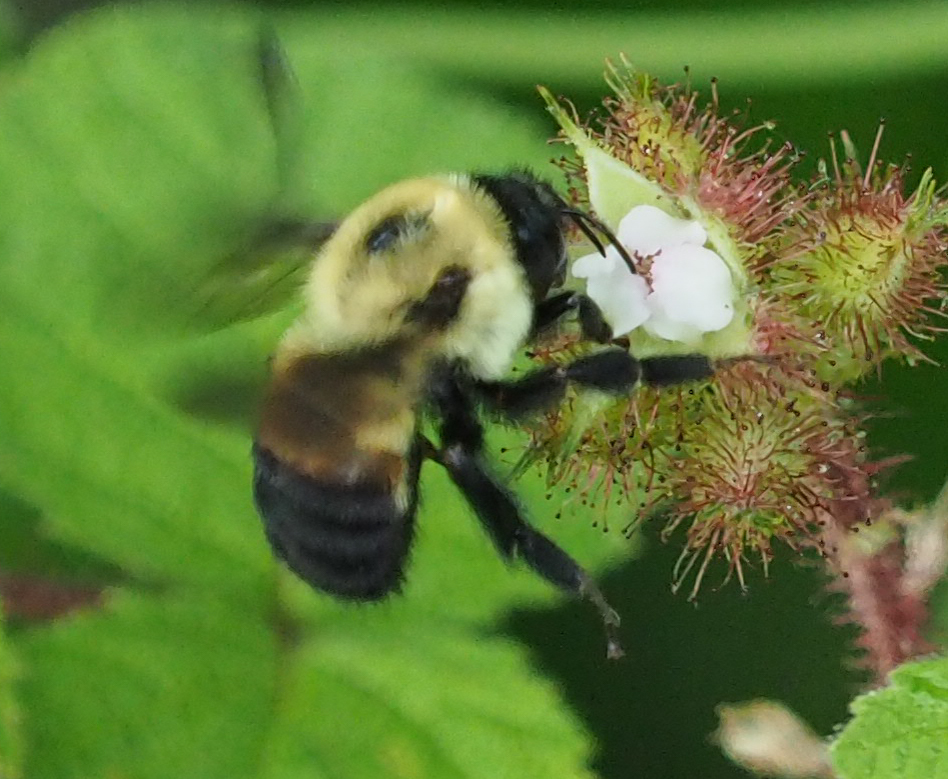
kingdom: Animalia
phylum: Arthropoda
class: Insecta
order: Hymenoptera
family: Apidae
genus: Bombus
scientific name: Bombus griseocollis
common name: Brown-belted bumble bee
